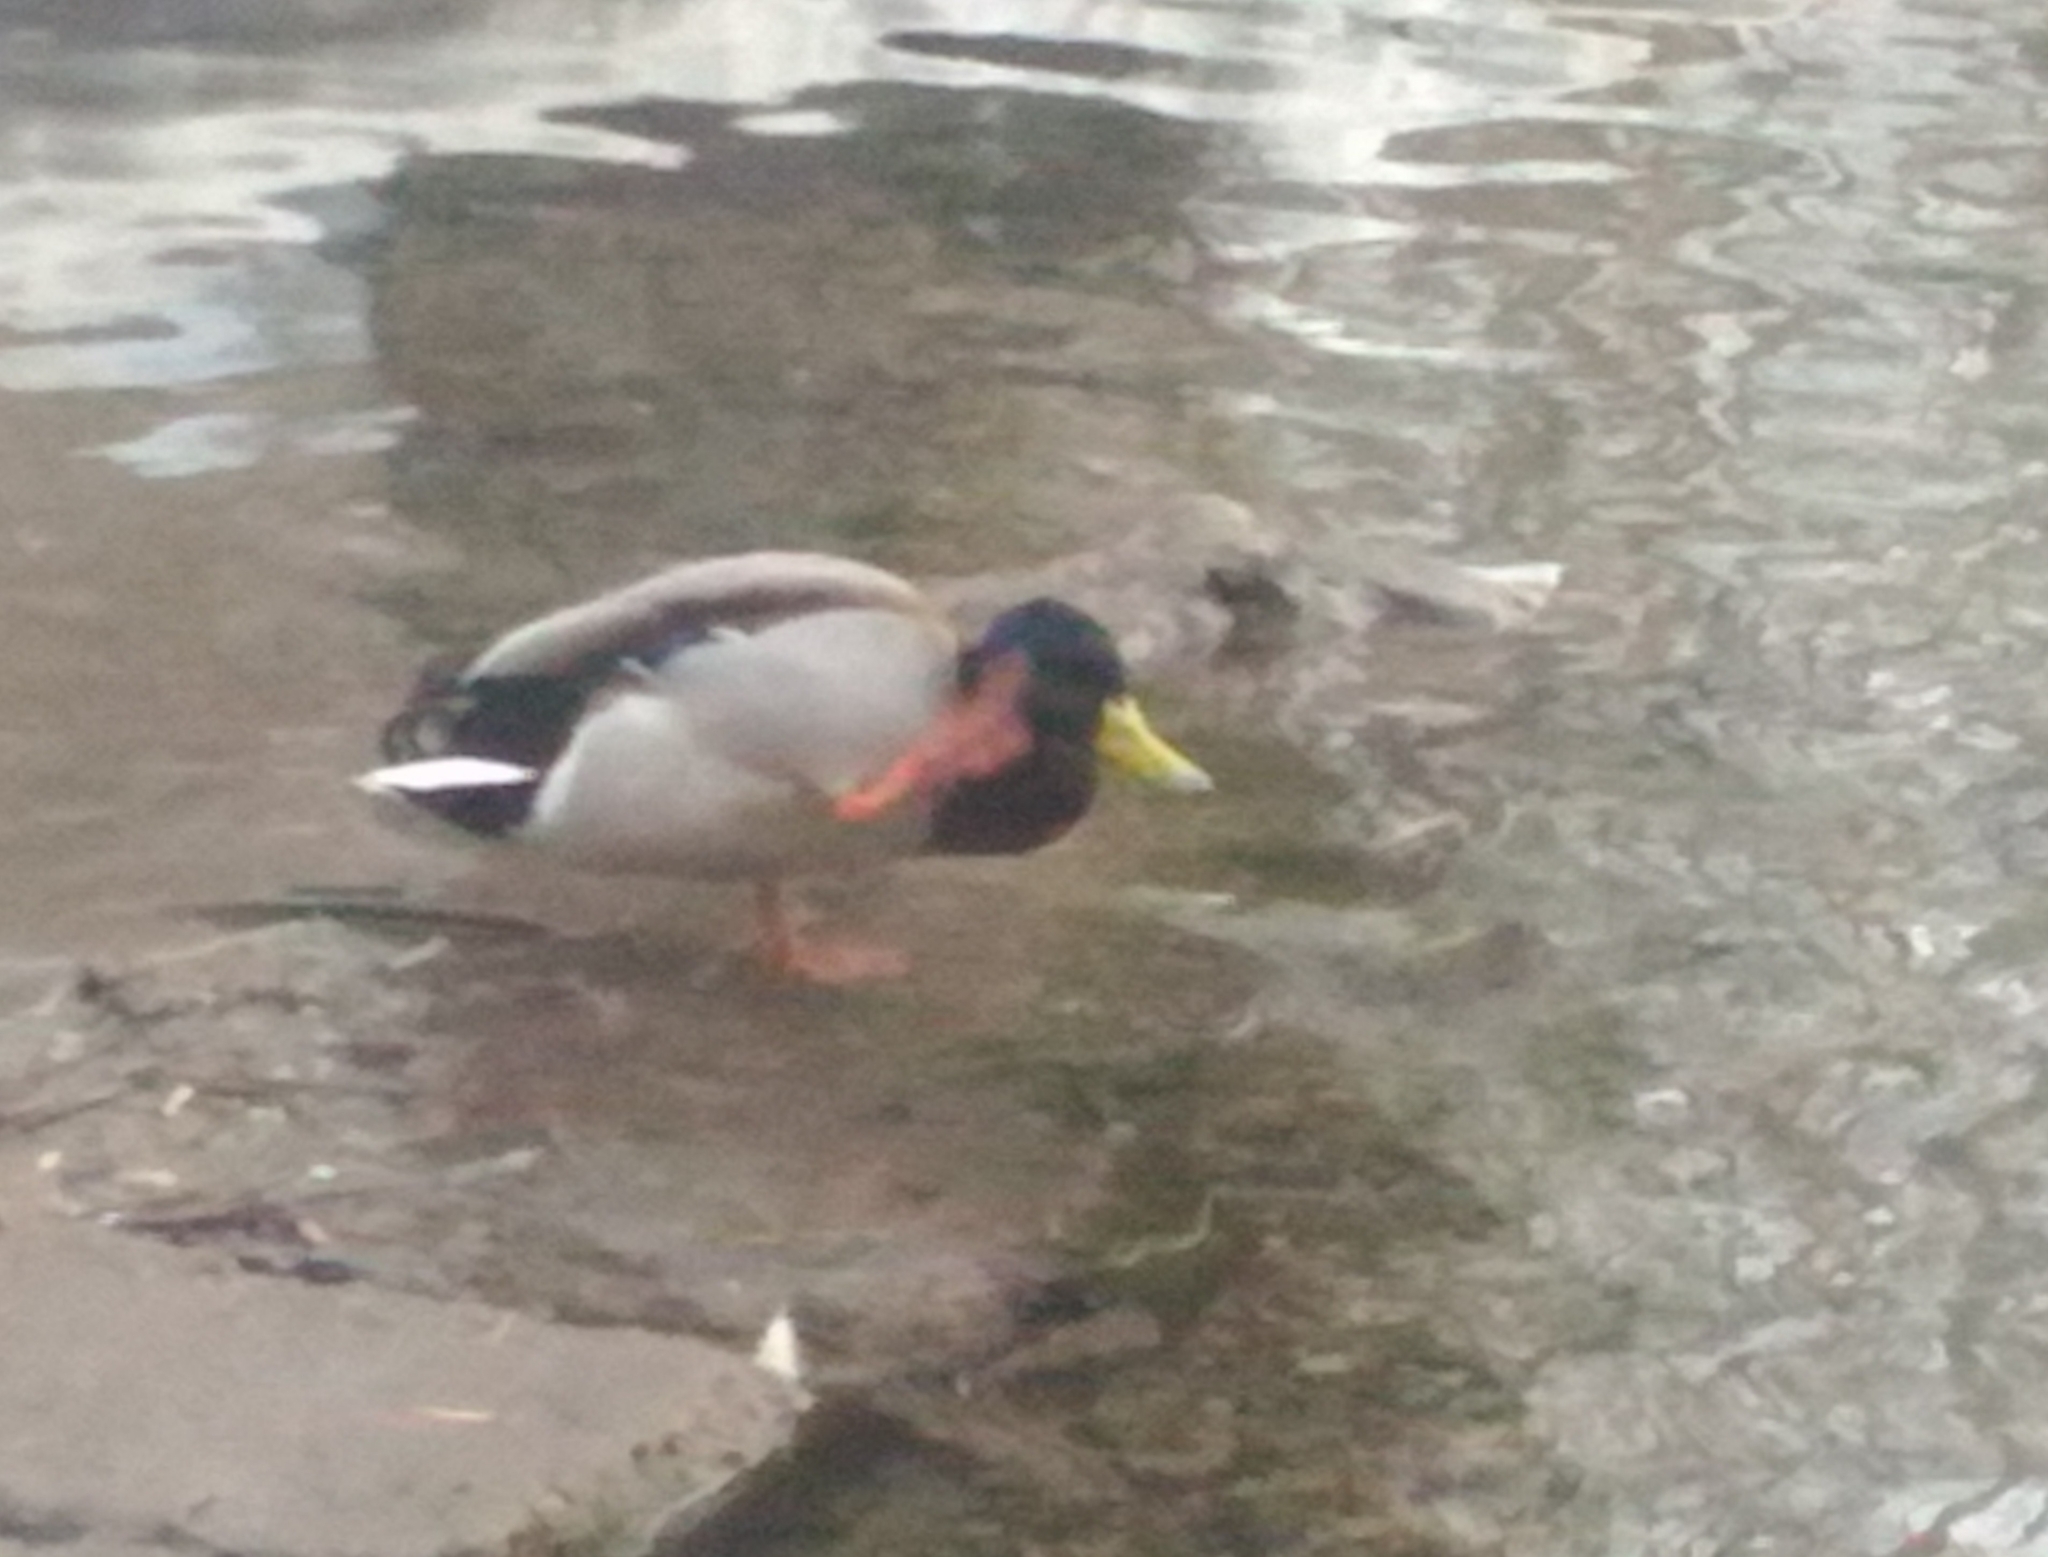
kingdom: Animalia
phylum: Chordata
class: Aves
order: Anseriformes
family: Anatidae
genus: Anas
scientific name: Anas platyrhynchos
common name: Mallard
